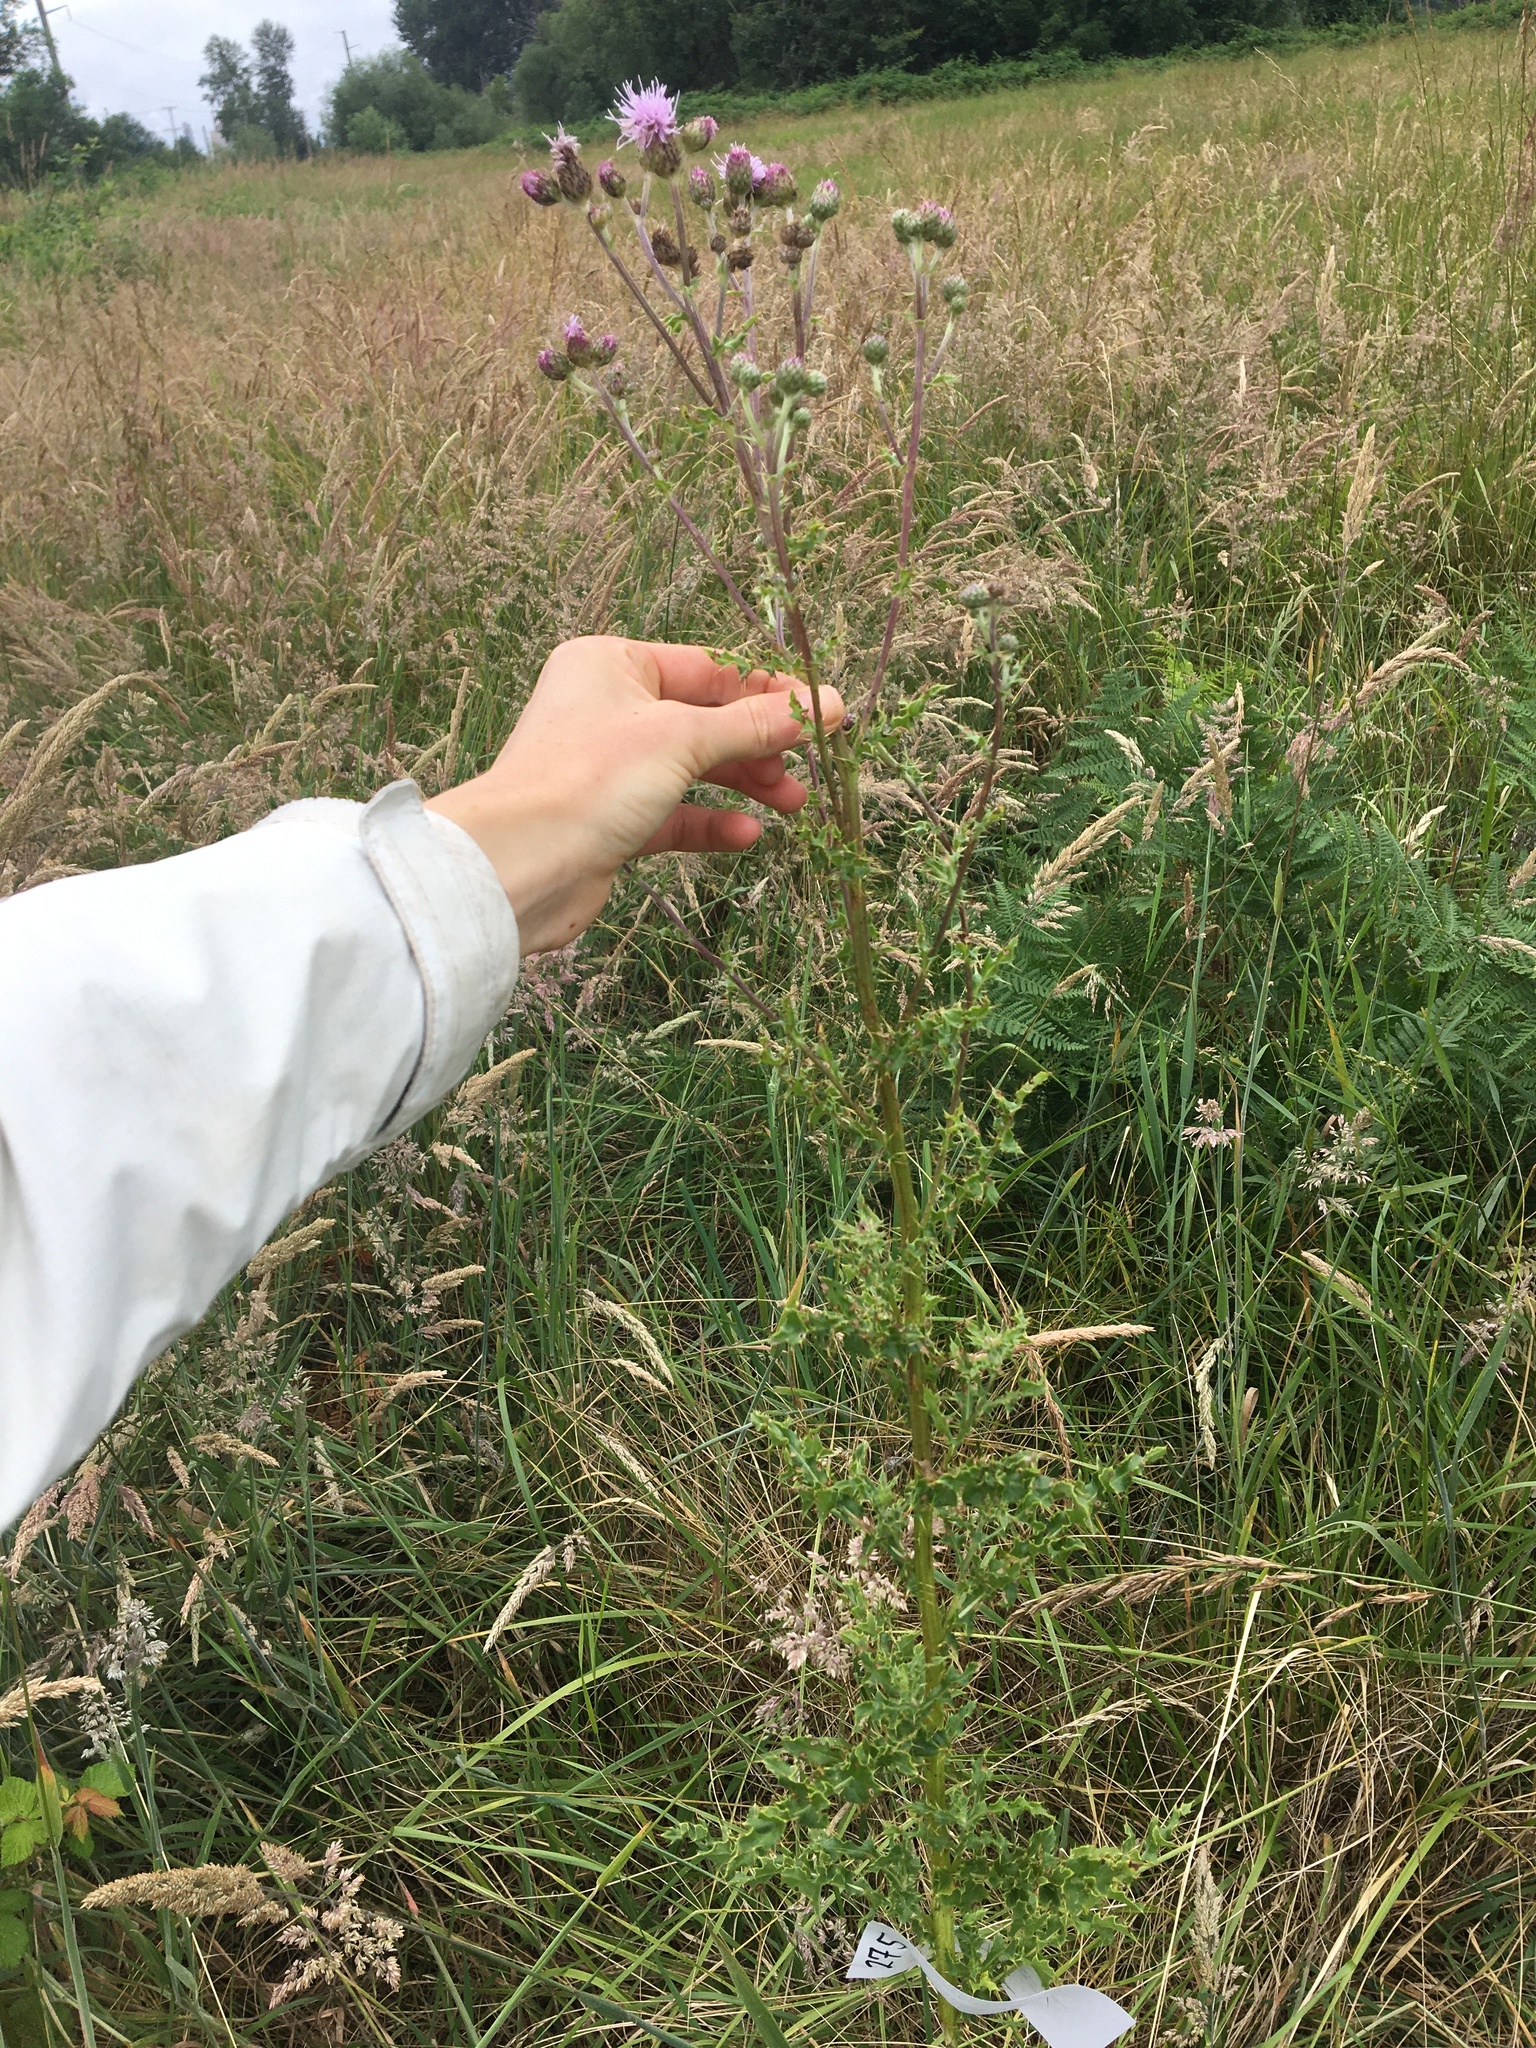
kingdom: Plantae
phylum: Tracheophyta
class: Magnoliopsida
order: Asterales
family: Asteraceae
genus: Cirsium
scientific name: Cirsium arvense
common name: Creeping thistle
